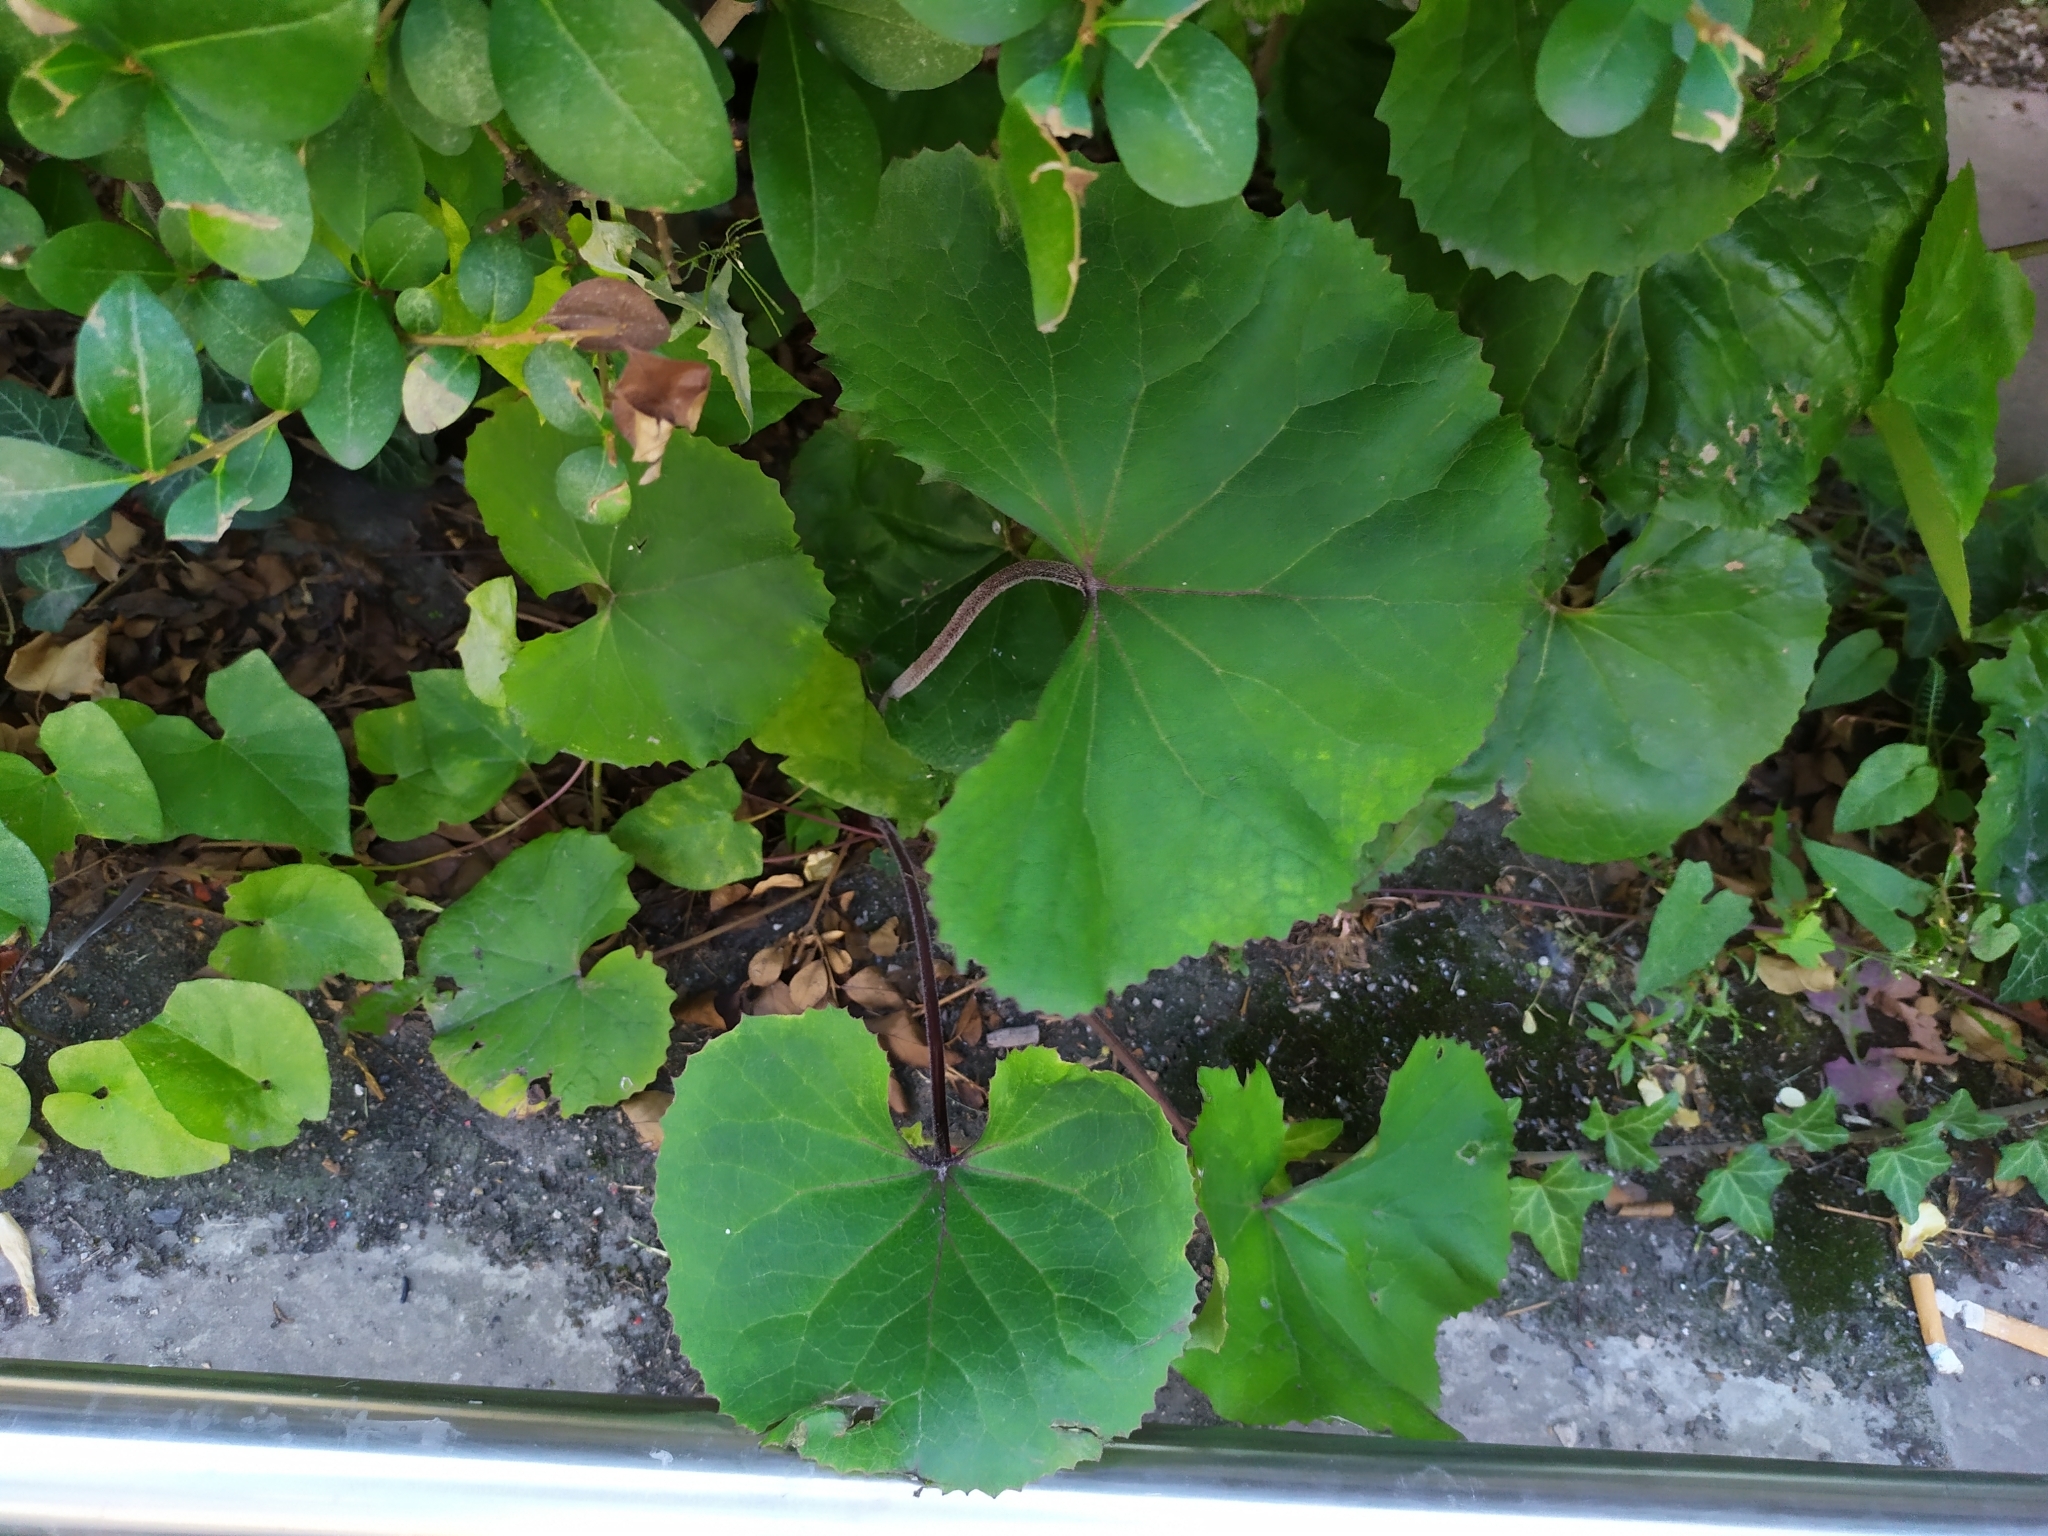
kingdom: Plantae
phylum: Tracheophyta
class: Magnoliopsida
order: Asterales
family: Asteraceae
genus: Tussilago
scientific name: Tussilago farfara
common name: Coltsfoot
